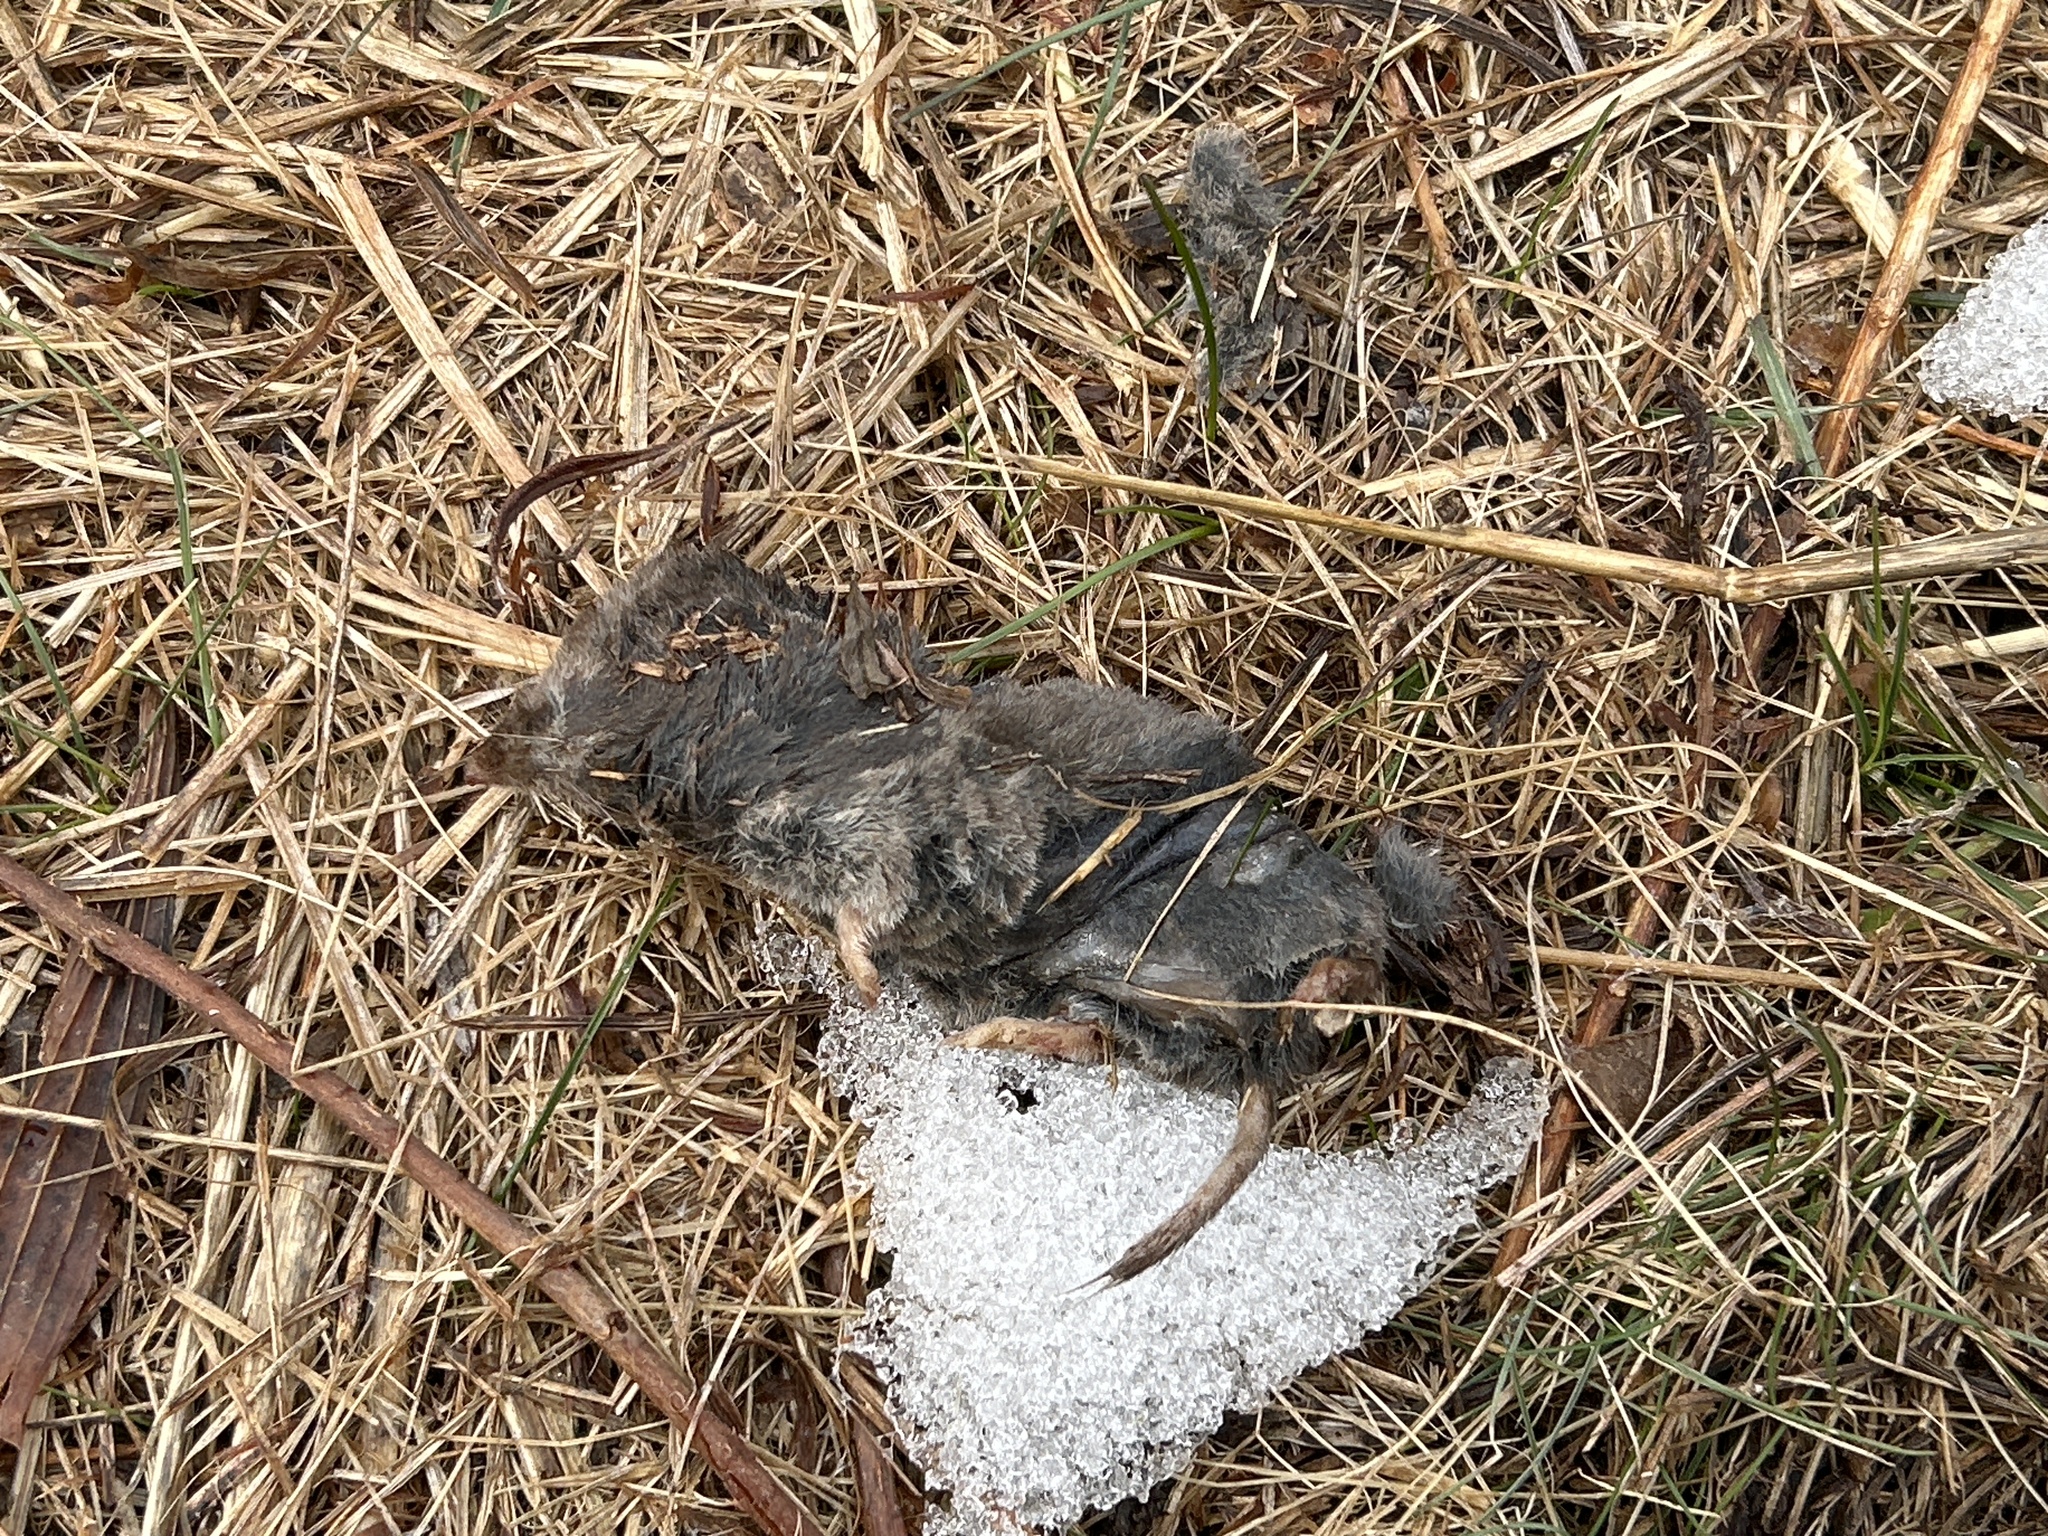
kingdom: Animalia
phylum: Chordata
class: Mammalia
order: Soricomorpha
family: Soricidae
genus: Blarina
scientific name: Blarina brevicauda
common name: Northern short-tailed shrew
